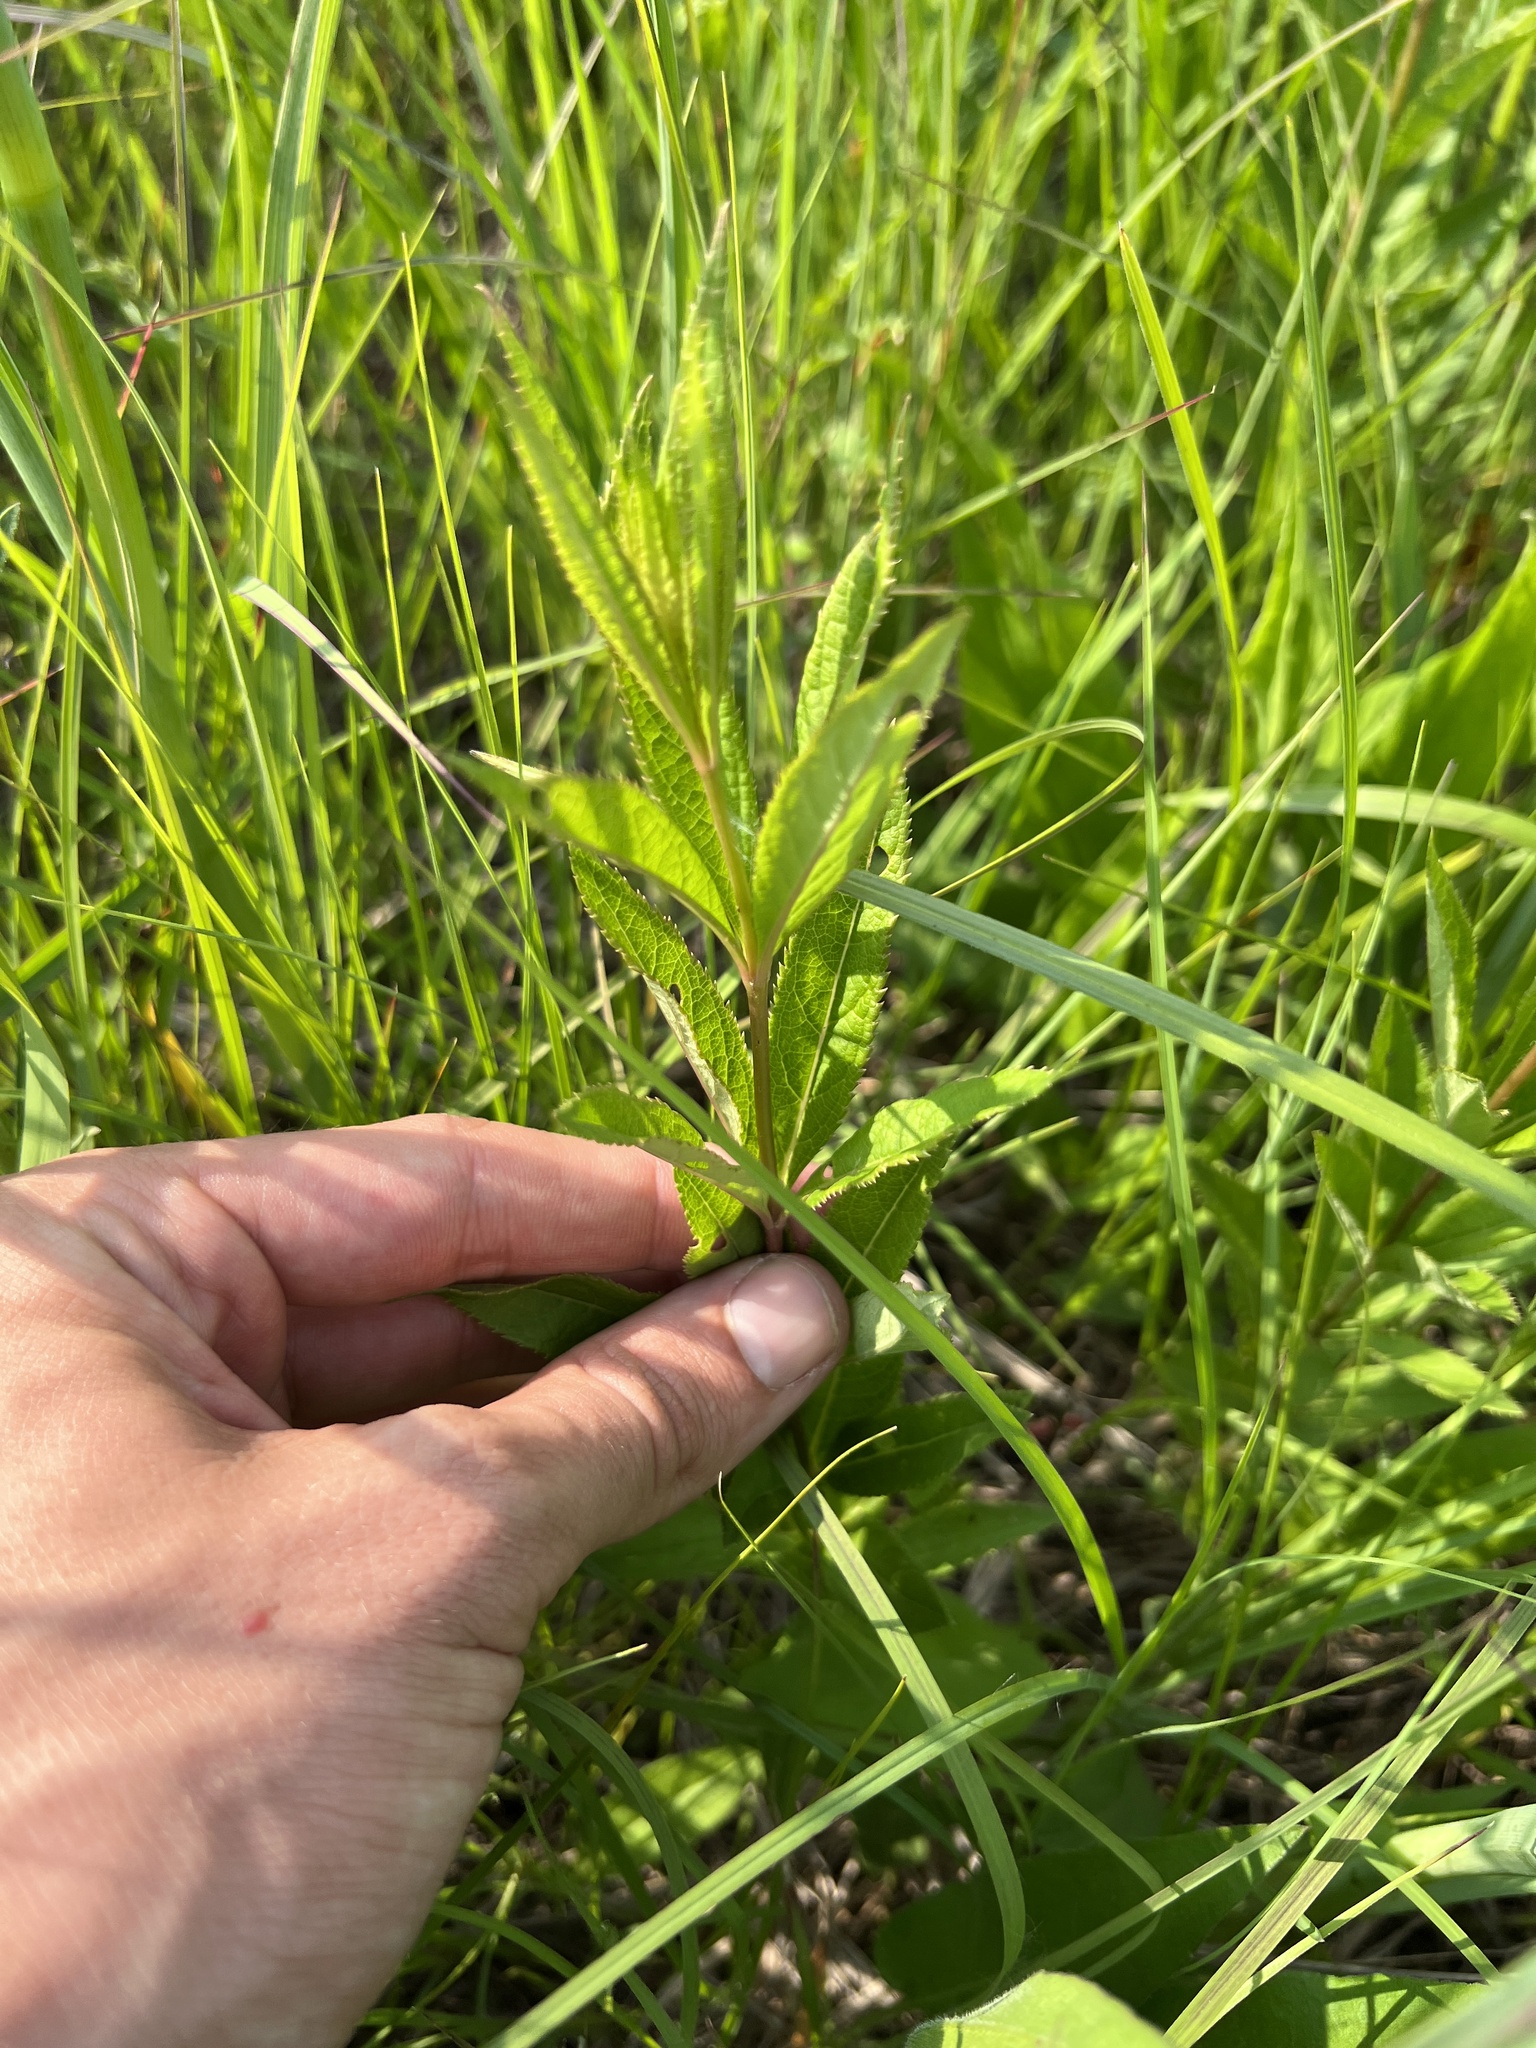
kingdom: Plantae
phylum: Tracheophyta
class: Magnoliopsida
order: Lamiales
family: Plantaginaceae
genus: Veronicastrum
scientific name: Veronicastrum virginicum
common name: Blackroot
